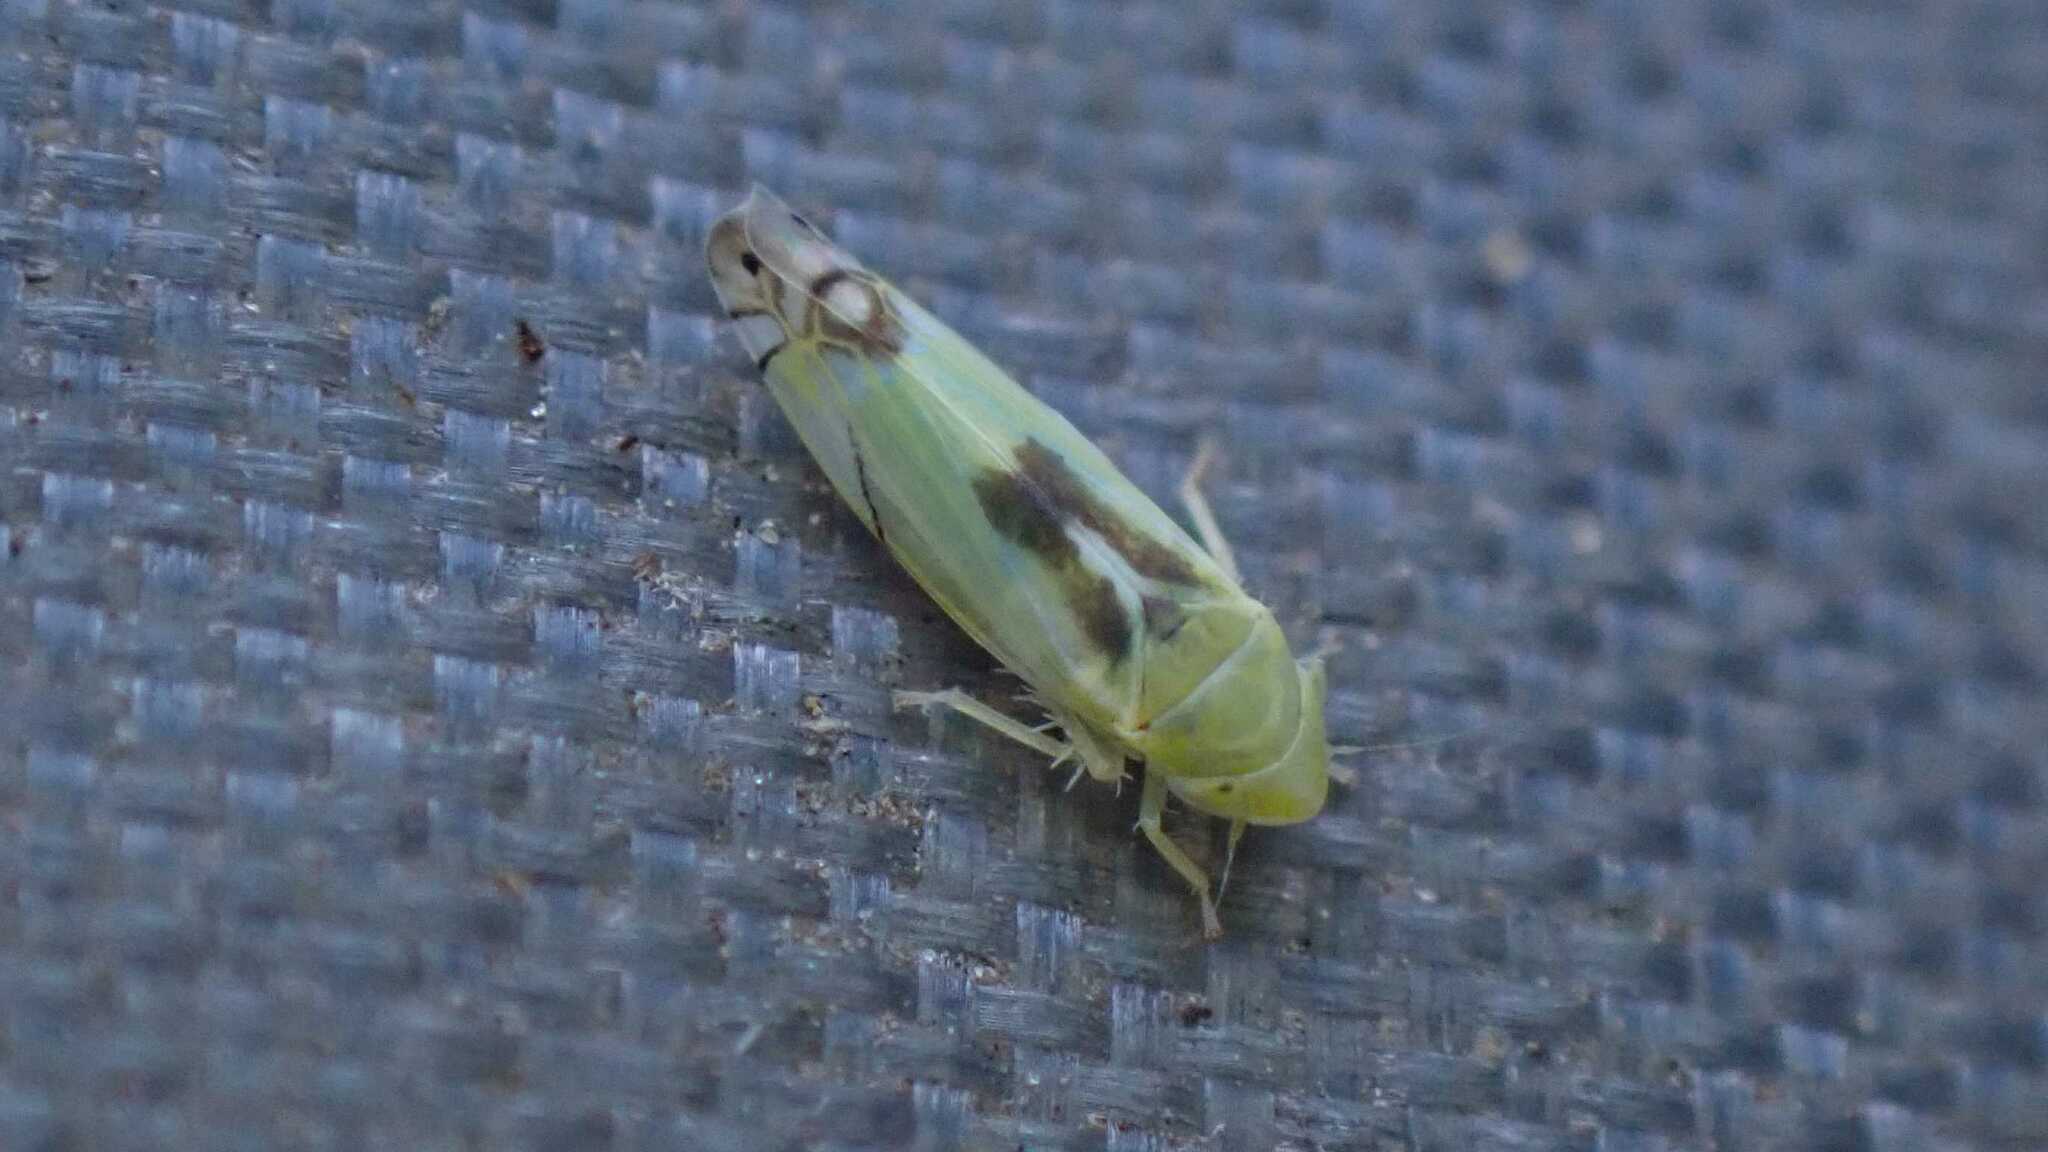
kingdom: Animalia
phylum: Arthropoda
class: Insecta
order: Hemiptera
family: Cicadellidae
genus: Zyginella
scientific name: Zyginella pulchra
